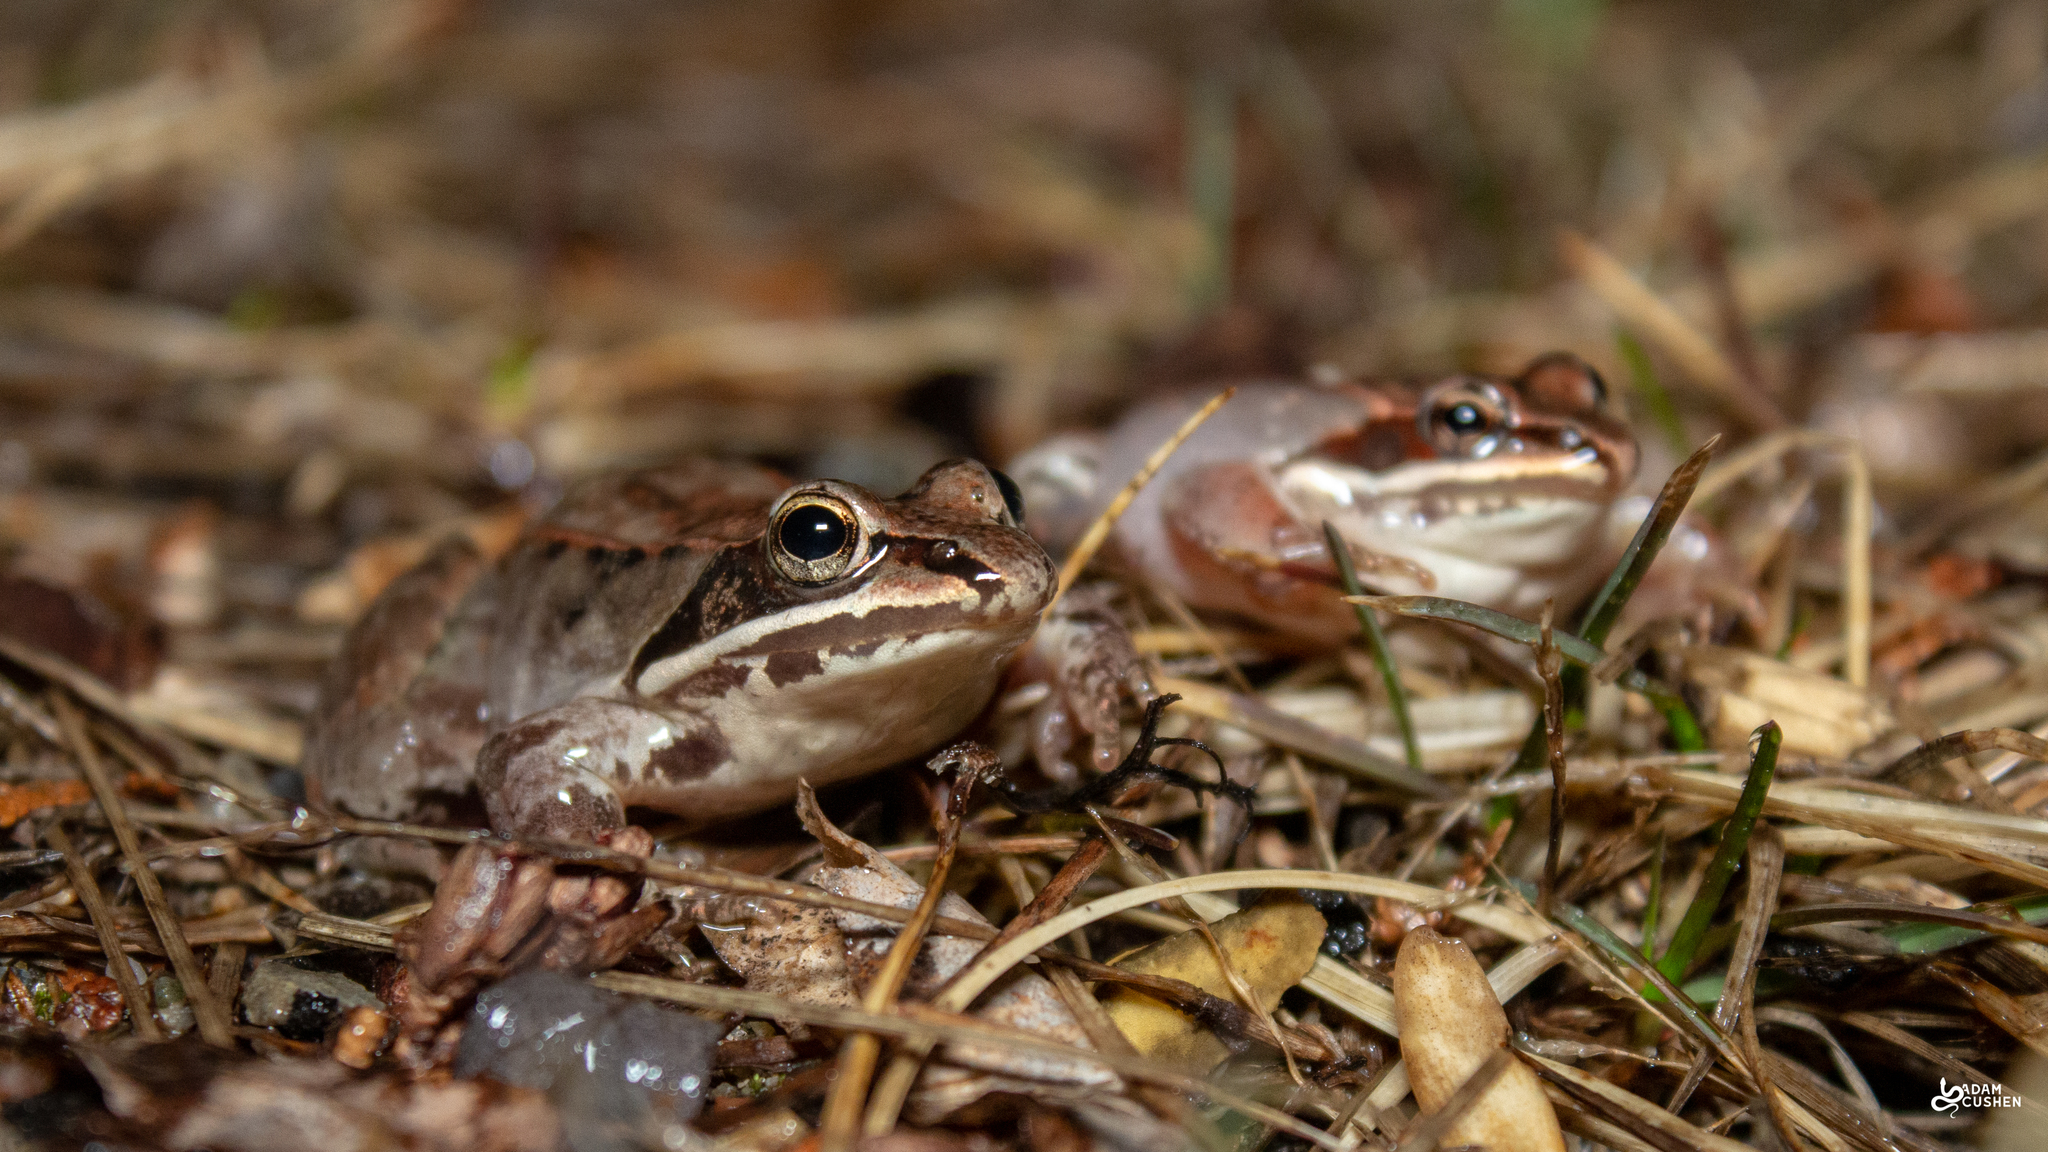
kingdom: Animalia
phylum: Chordata
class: Amphibia
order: Anura
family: Ranidae
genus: Lithobates
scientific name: Lithobates sylvaticus
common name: Wood frog
